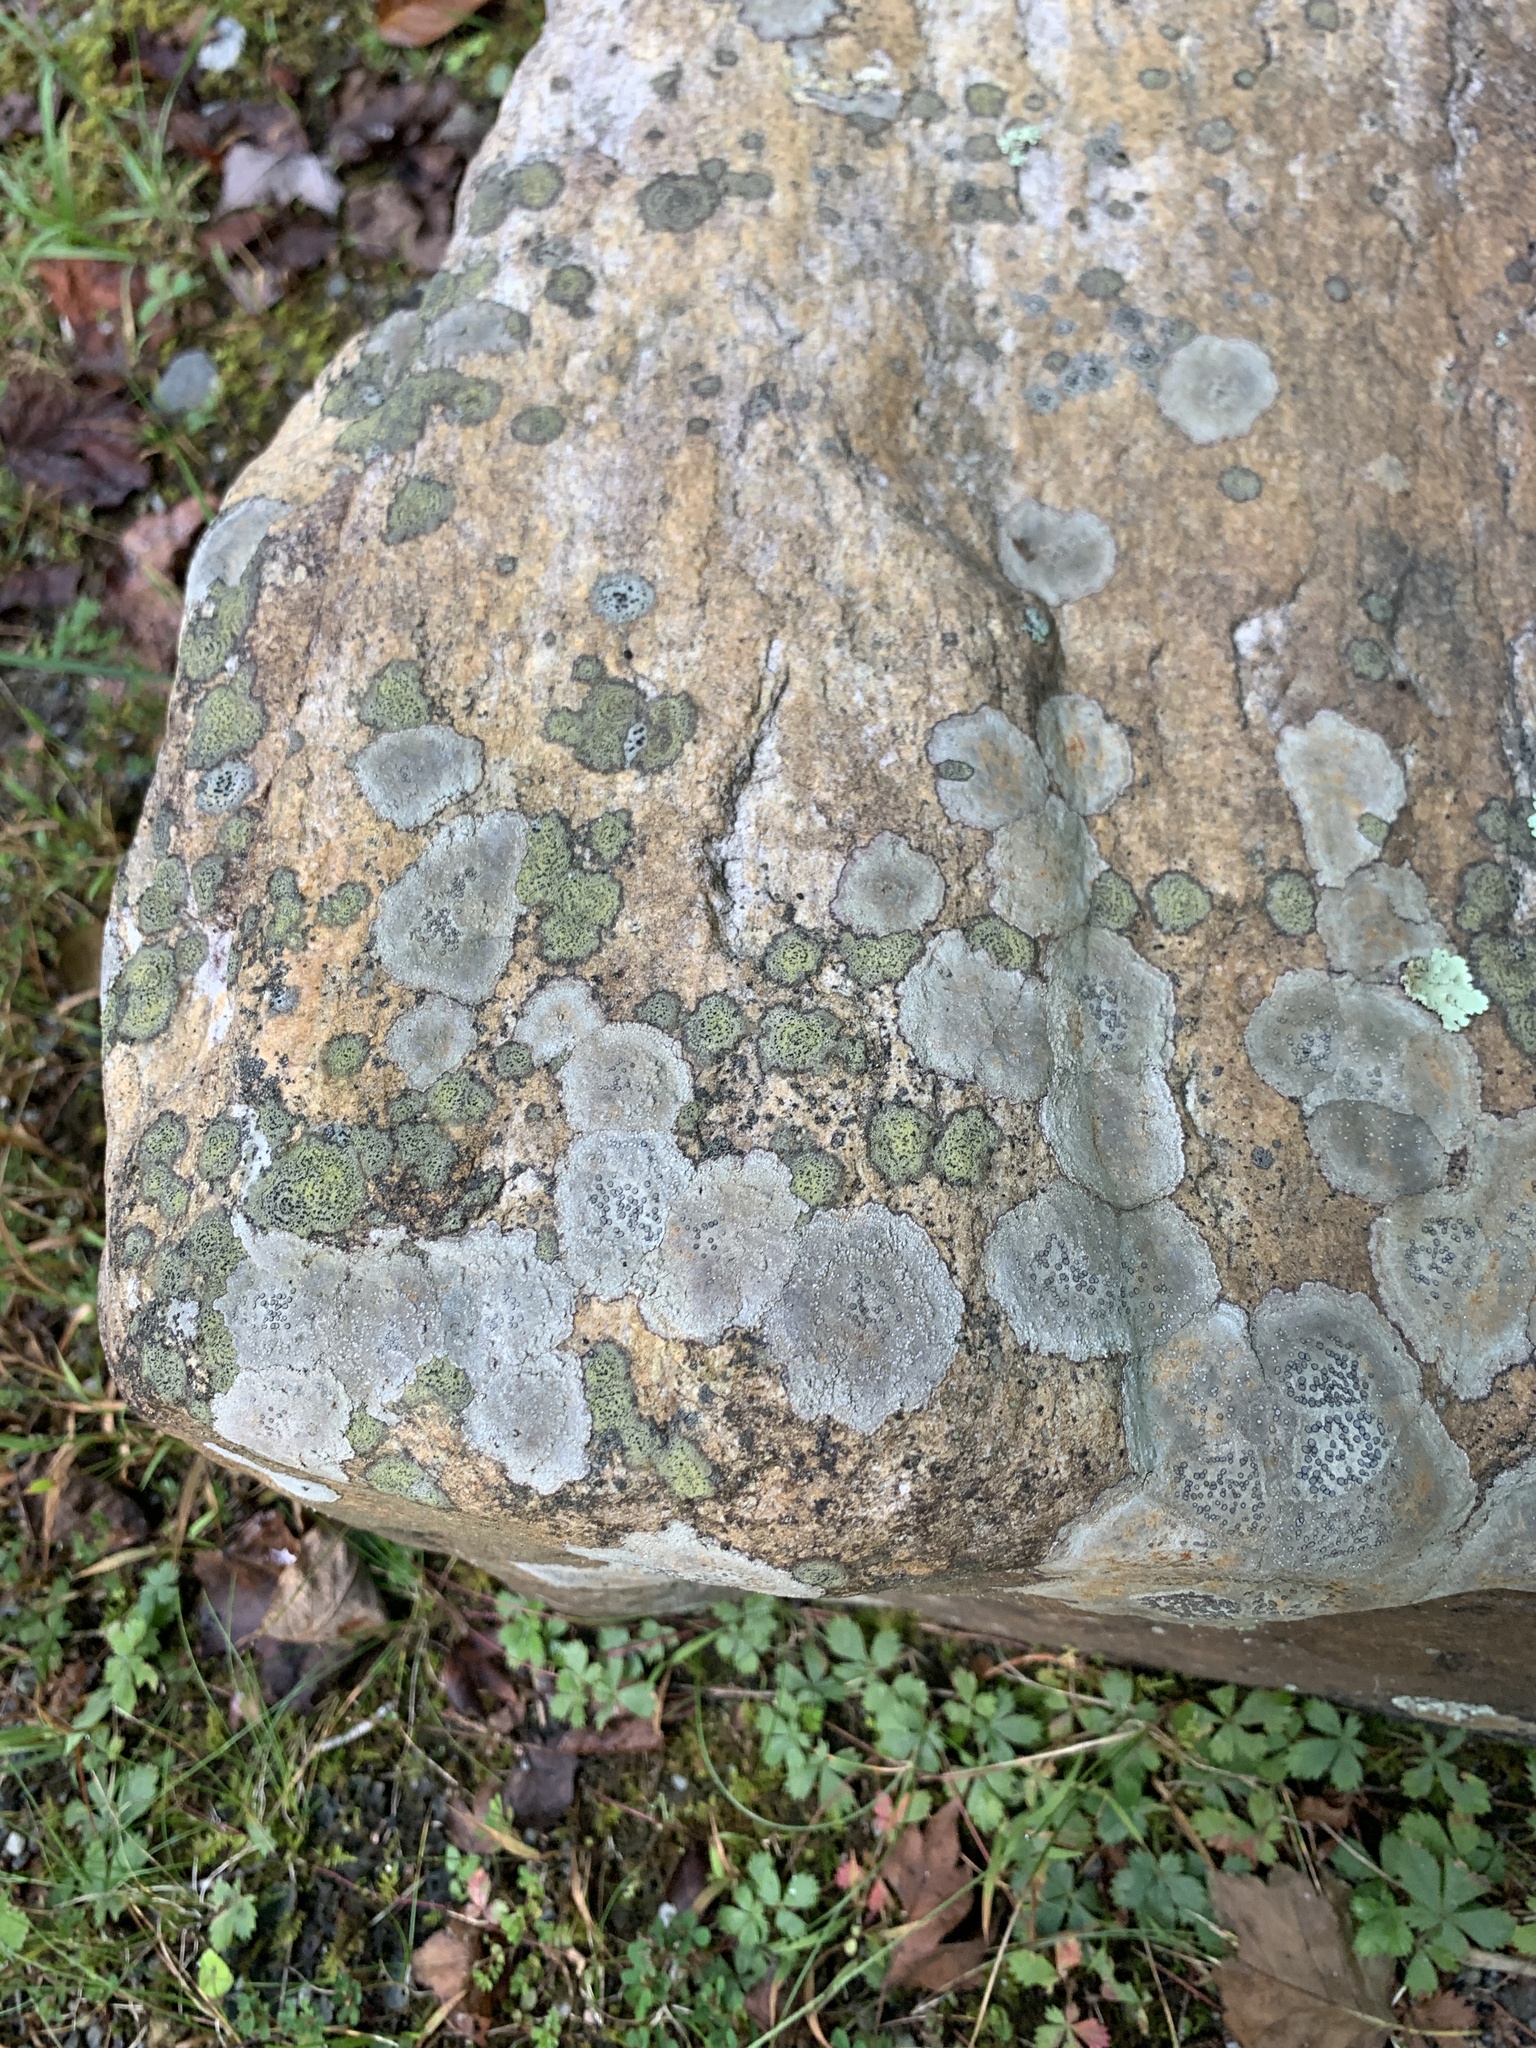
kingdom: Fungi
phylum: Ascomycota
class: Lecanoromycetes
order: Lecideales
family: Lecideaceae
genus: Porpidia
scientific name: Porpidia albocaerulescens
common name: Smokey-eyed boulder lichen
